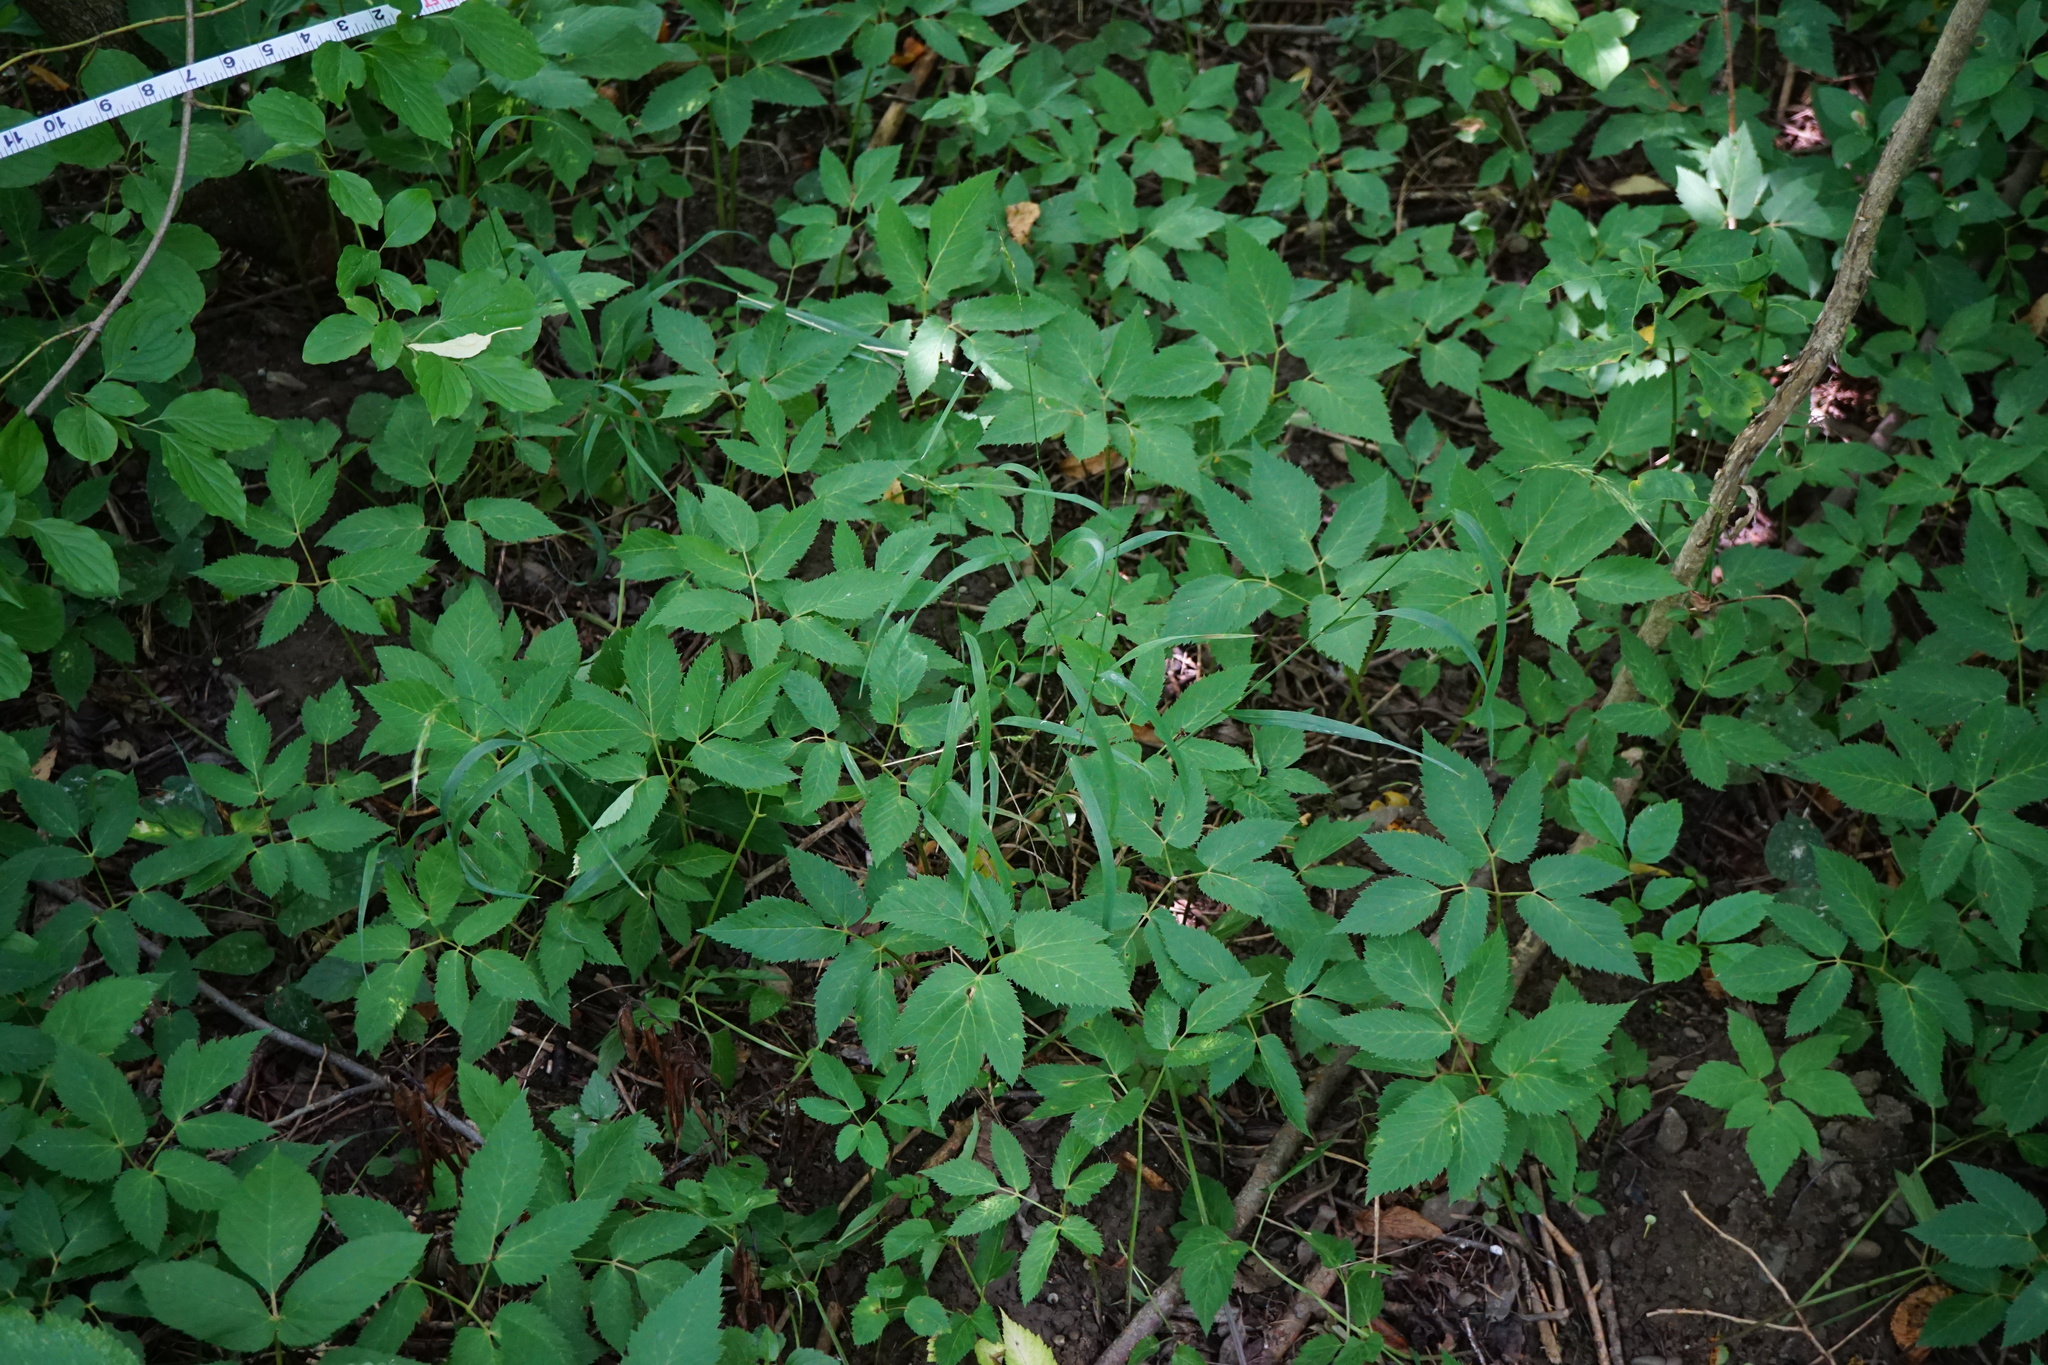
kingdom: Plantae
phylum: Tracheophyta
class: Liliopsida
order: Poales
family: Poaceae
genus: Elymus
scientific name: Elymus caninus
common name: Bearded couch
